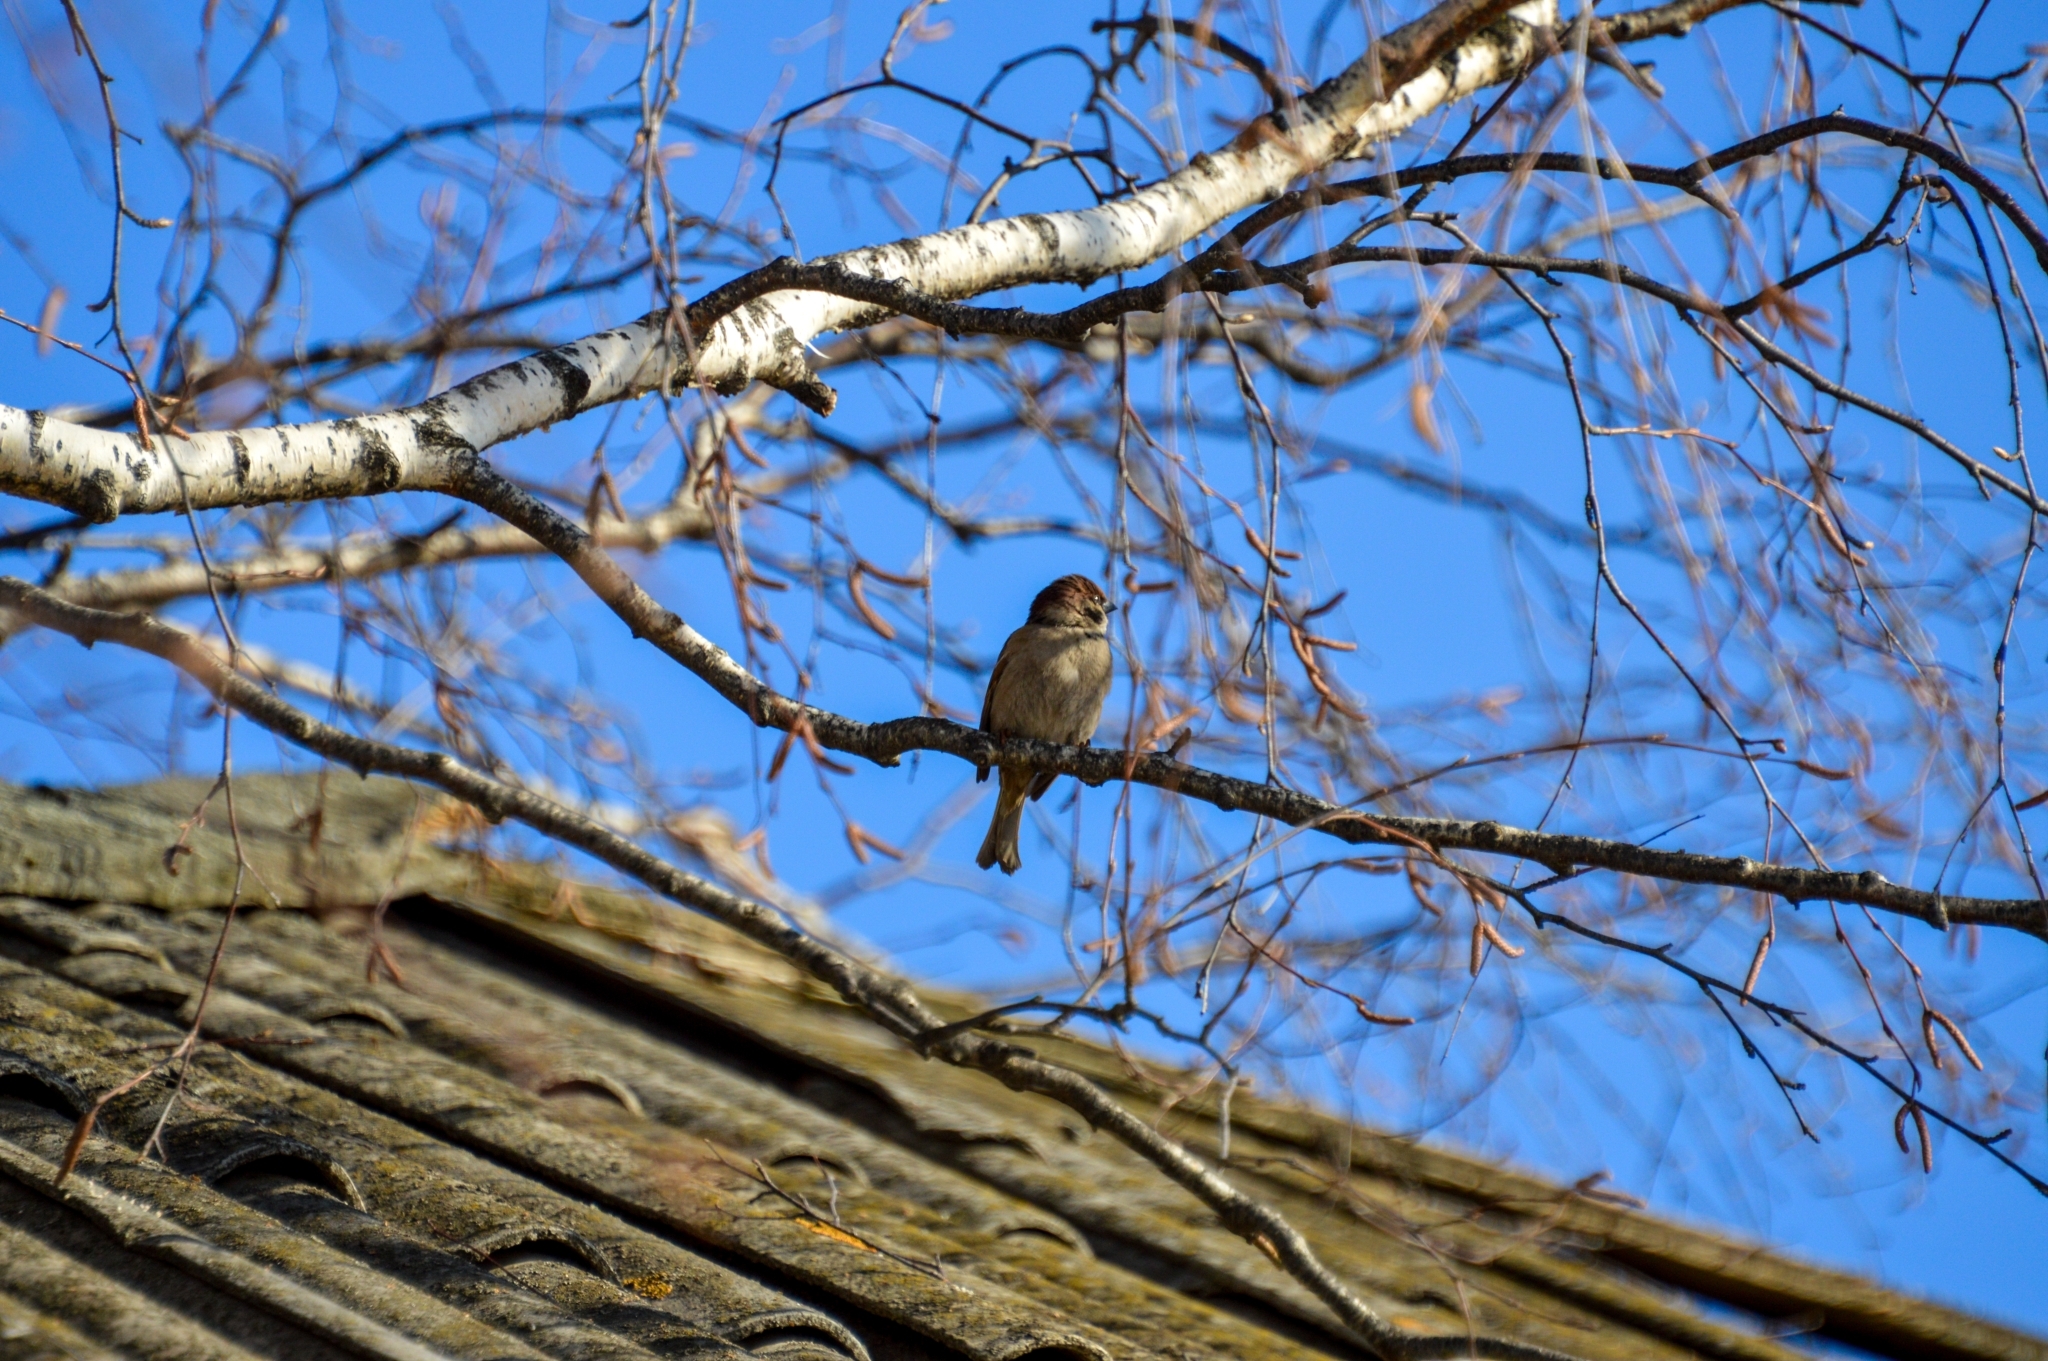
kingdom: Animalia
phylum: Chordata
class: Aves
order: Passeriformes
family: Passeridae
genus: Passer
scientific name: Passer montanus
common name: Eurasian tree sparrow
